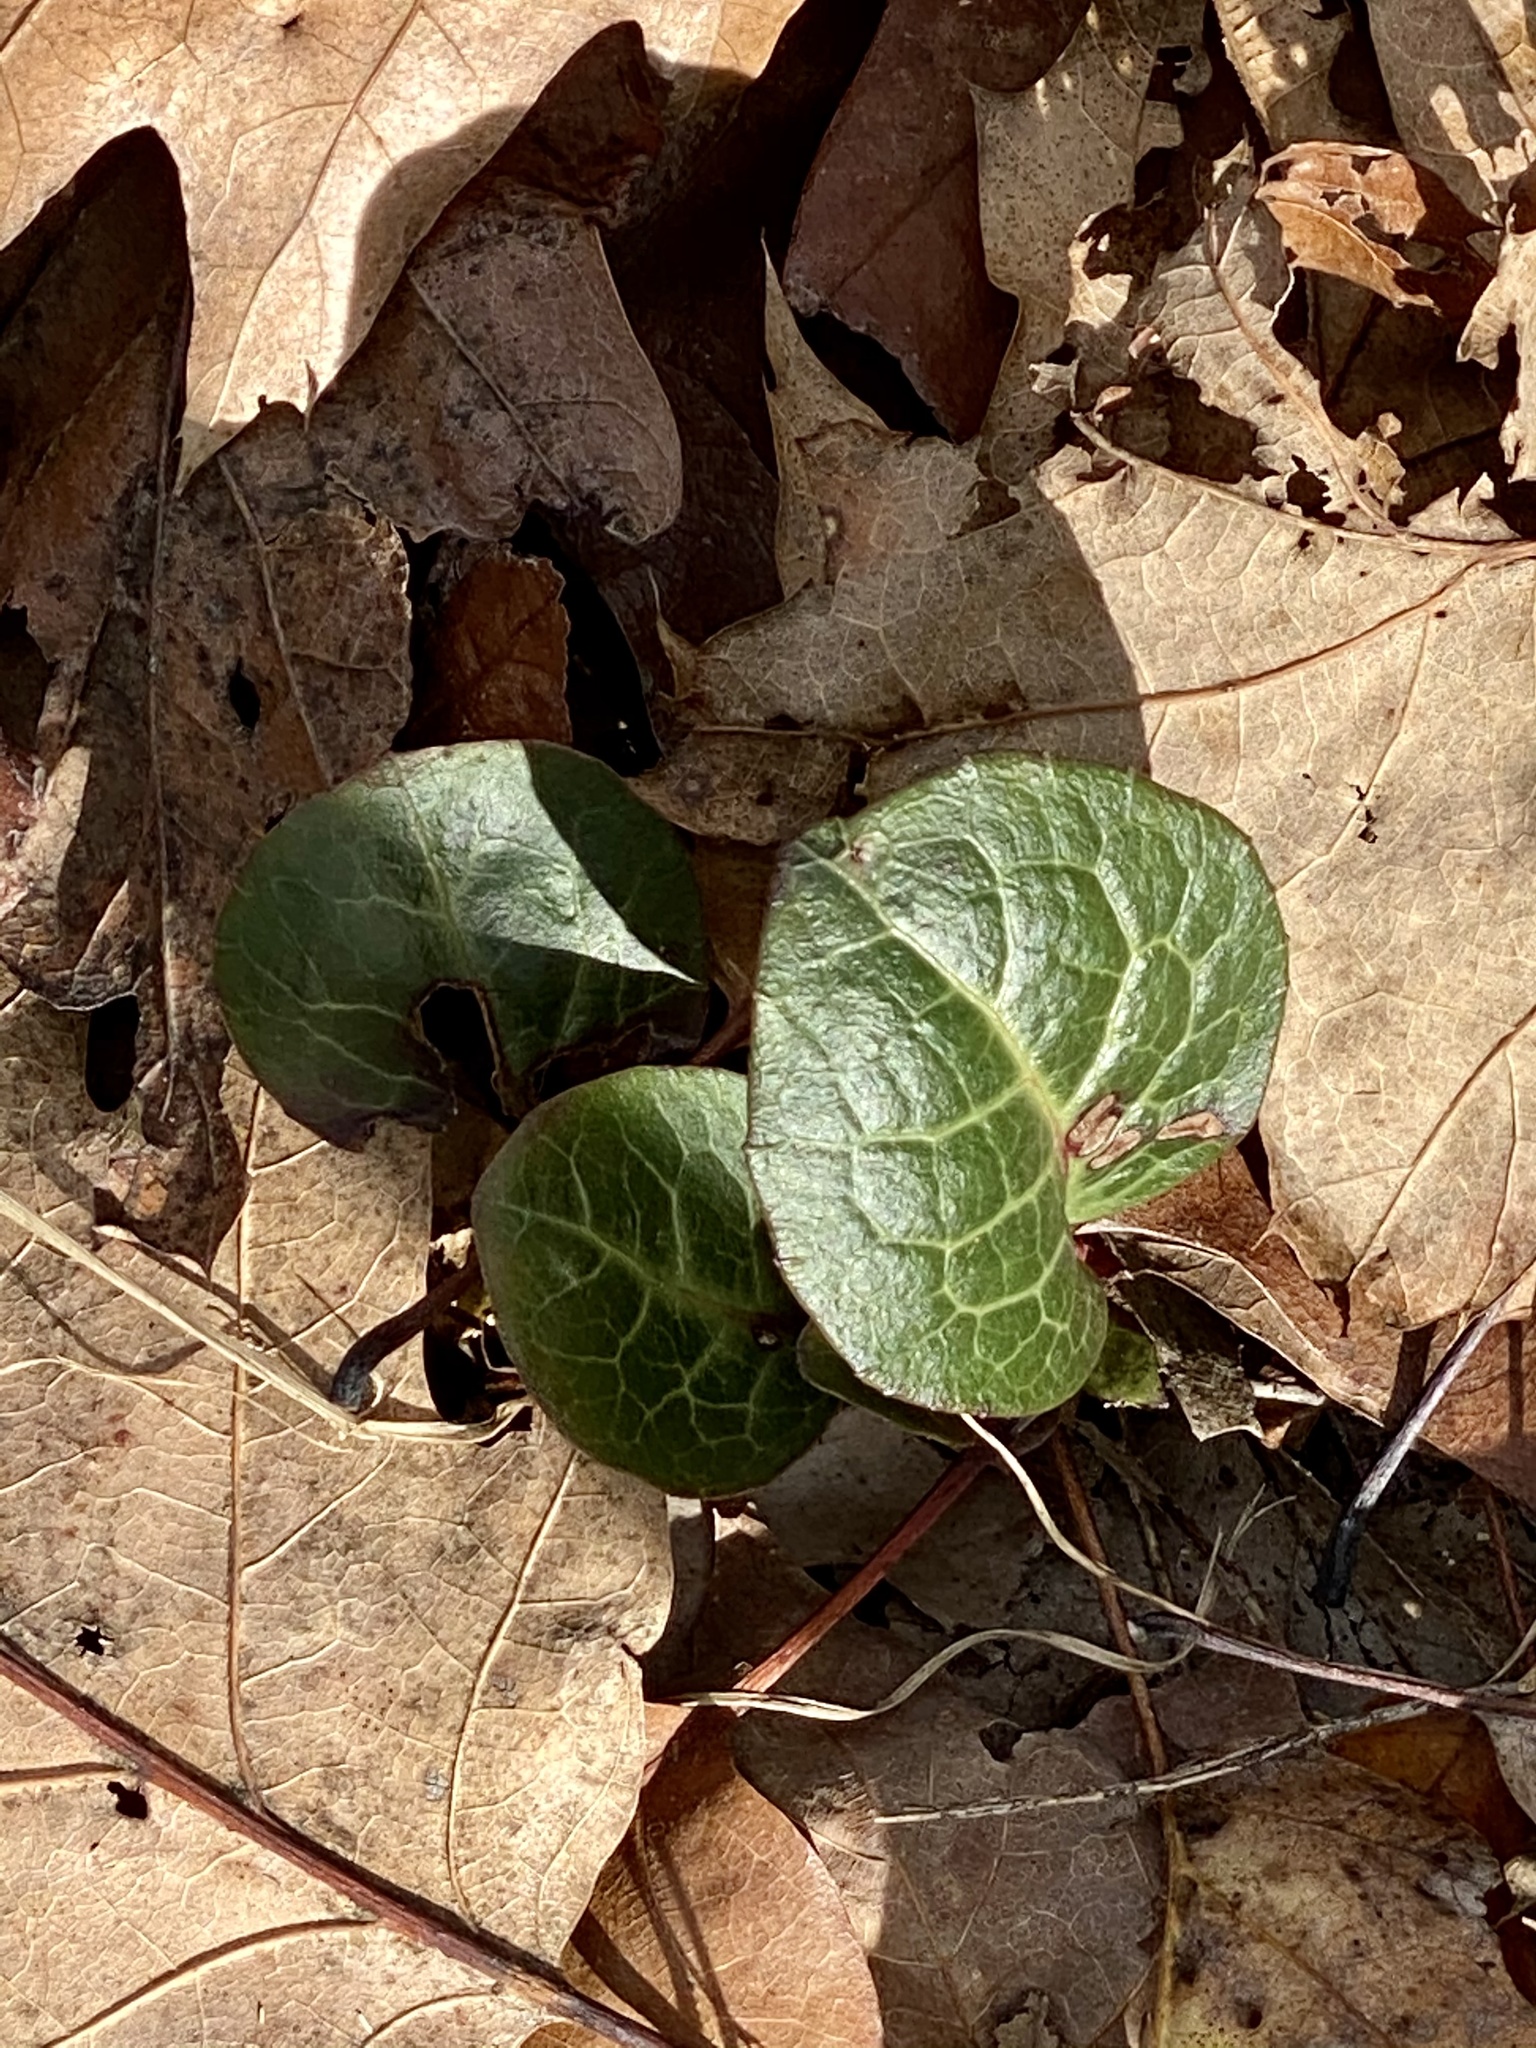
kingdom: Plantae
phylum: Tracheophyta
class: Magnoliopsida
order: Ericales
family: Ericaceae
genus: Pyrola
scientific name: Pyrola americana
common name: American wintergreen
